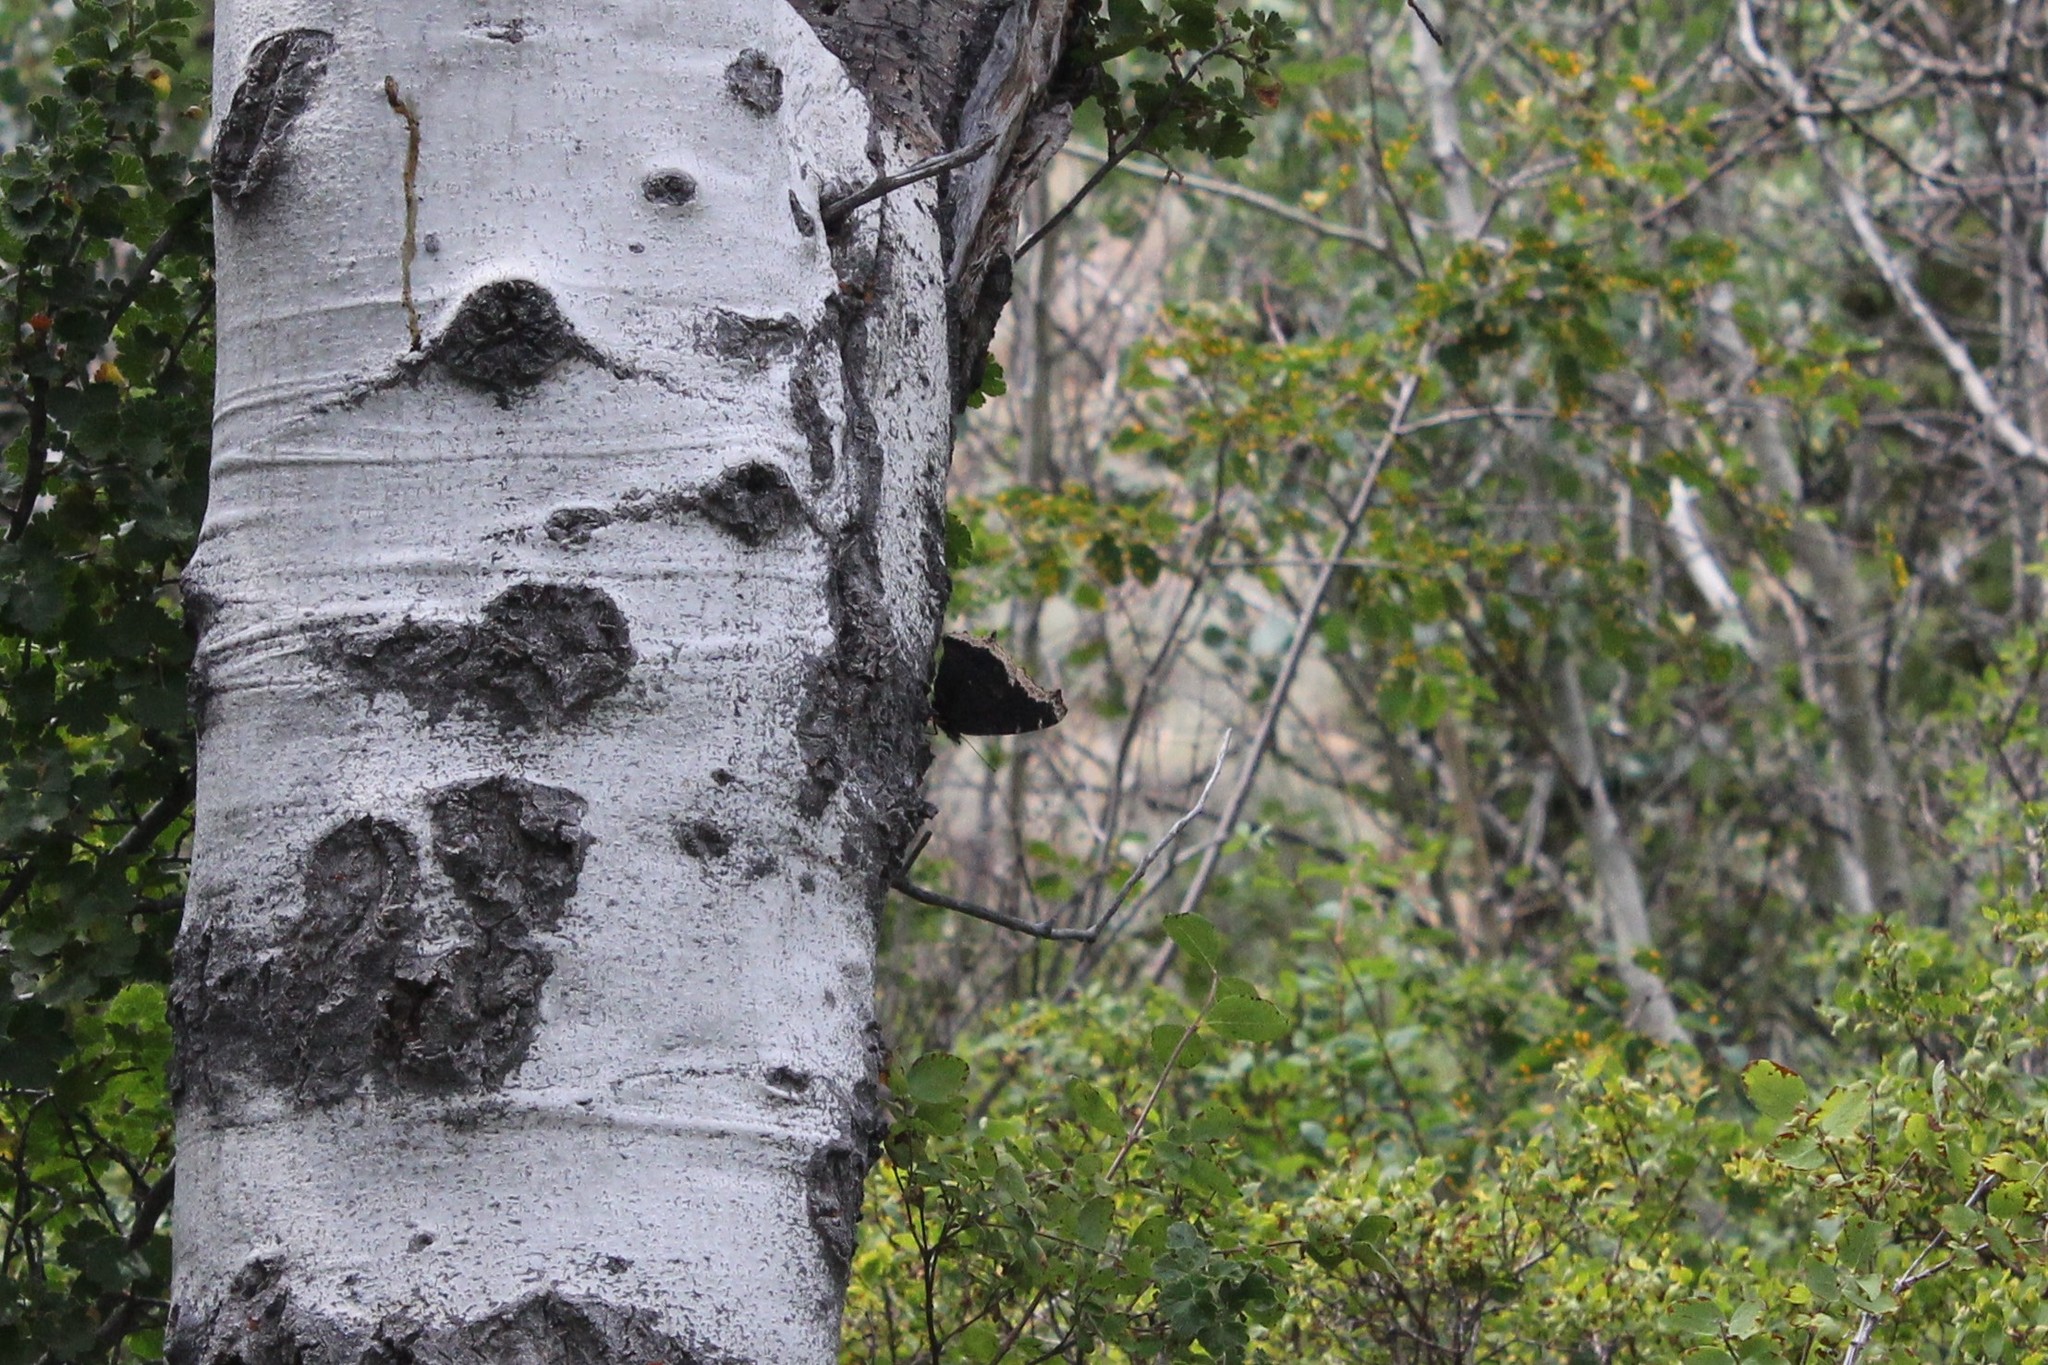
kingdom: Animalia
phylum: Arthropoda
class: Insecta
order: Lepidoptera
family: Nymphalidae
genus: Nymphalis
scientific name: Nymphalis antiopa
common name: Camberwell beauty
